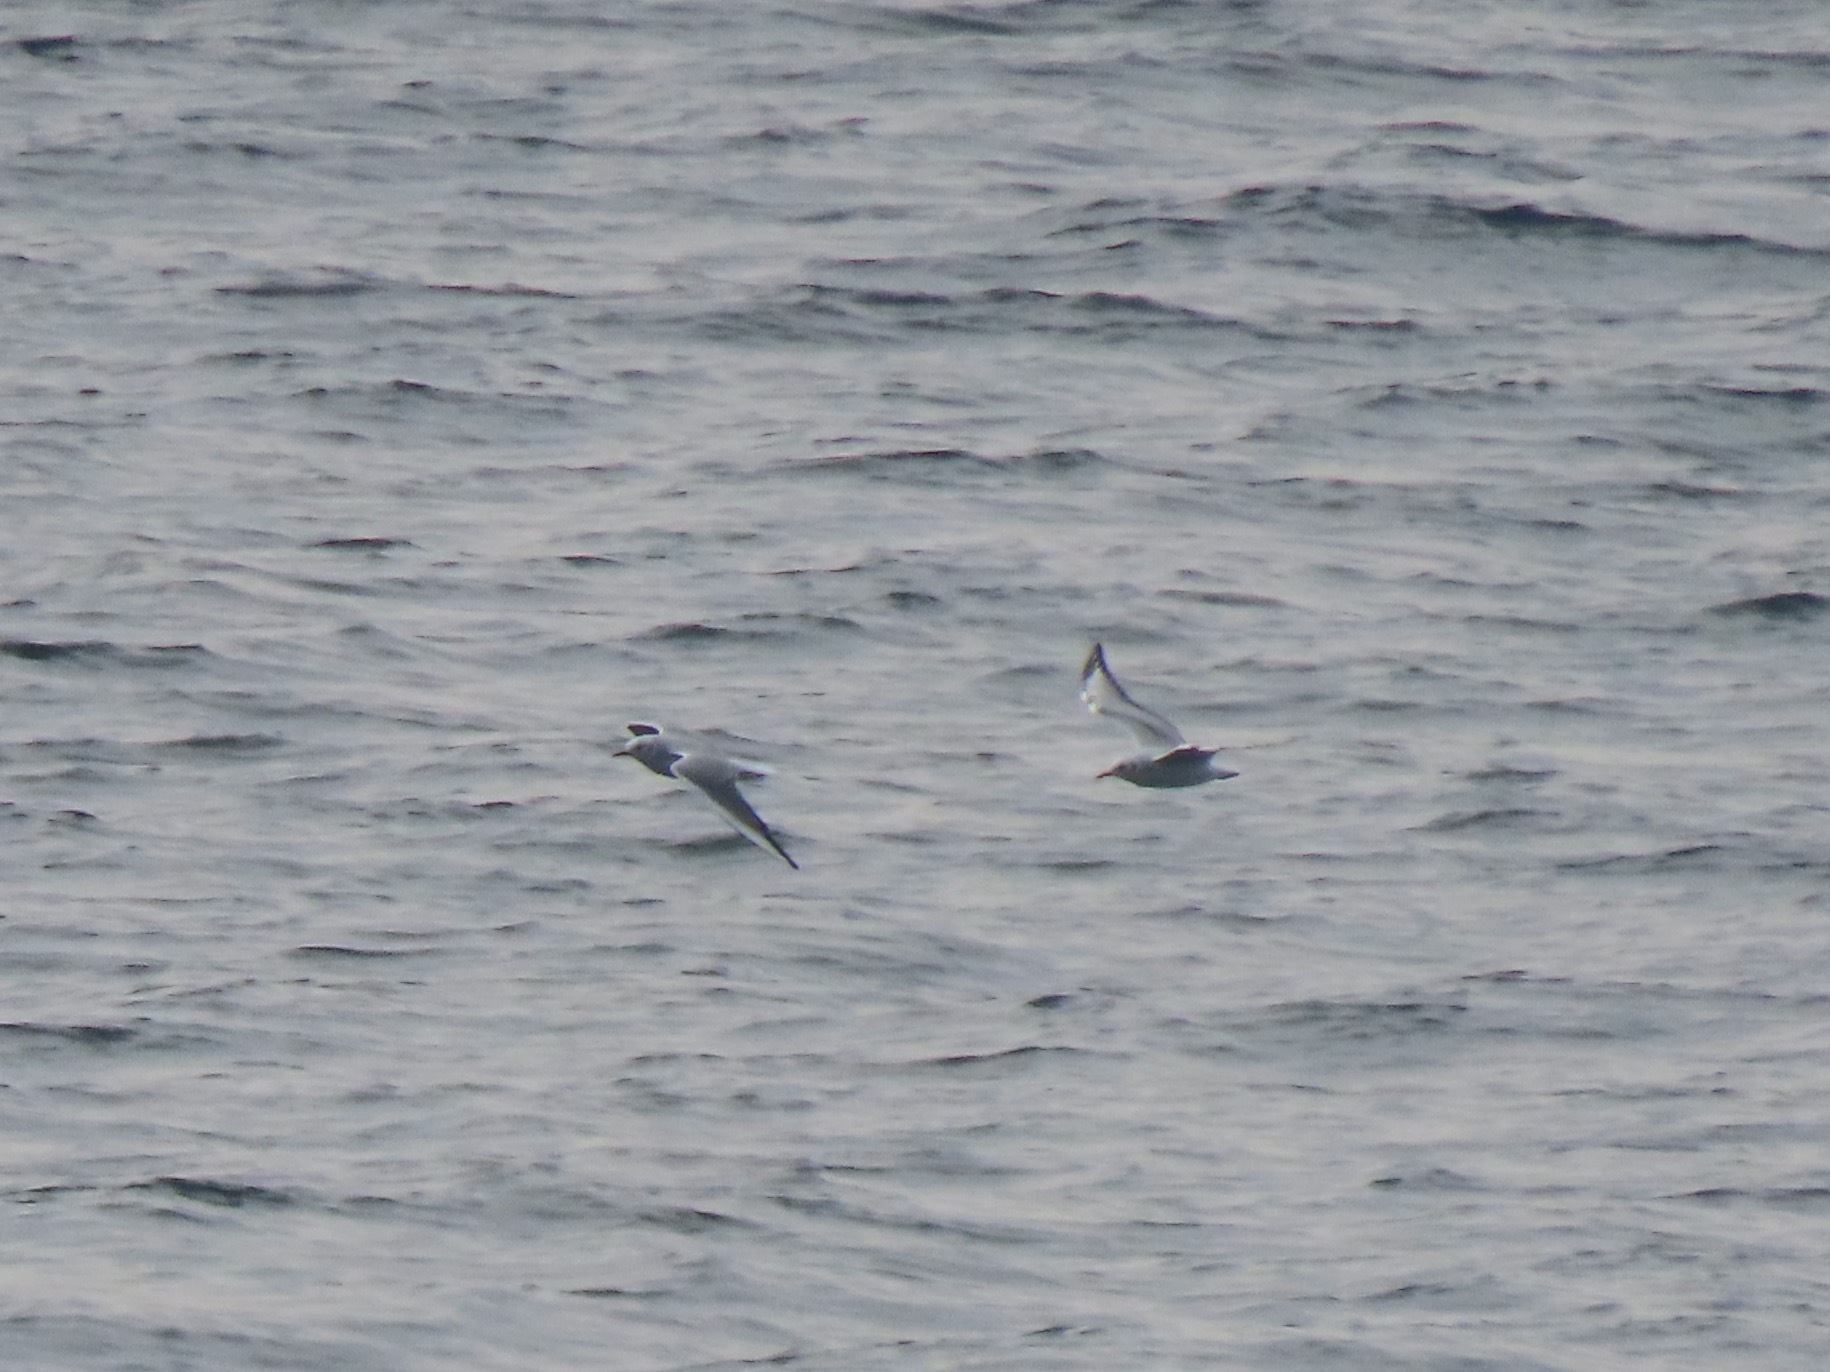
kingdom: Animalia
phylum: Chordata
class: Aves
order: Charadriiformes
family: Laridae
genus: Chroicocephalus
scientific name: Chroicocephalus philadelphia
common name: Bonaparte's gull
